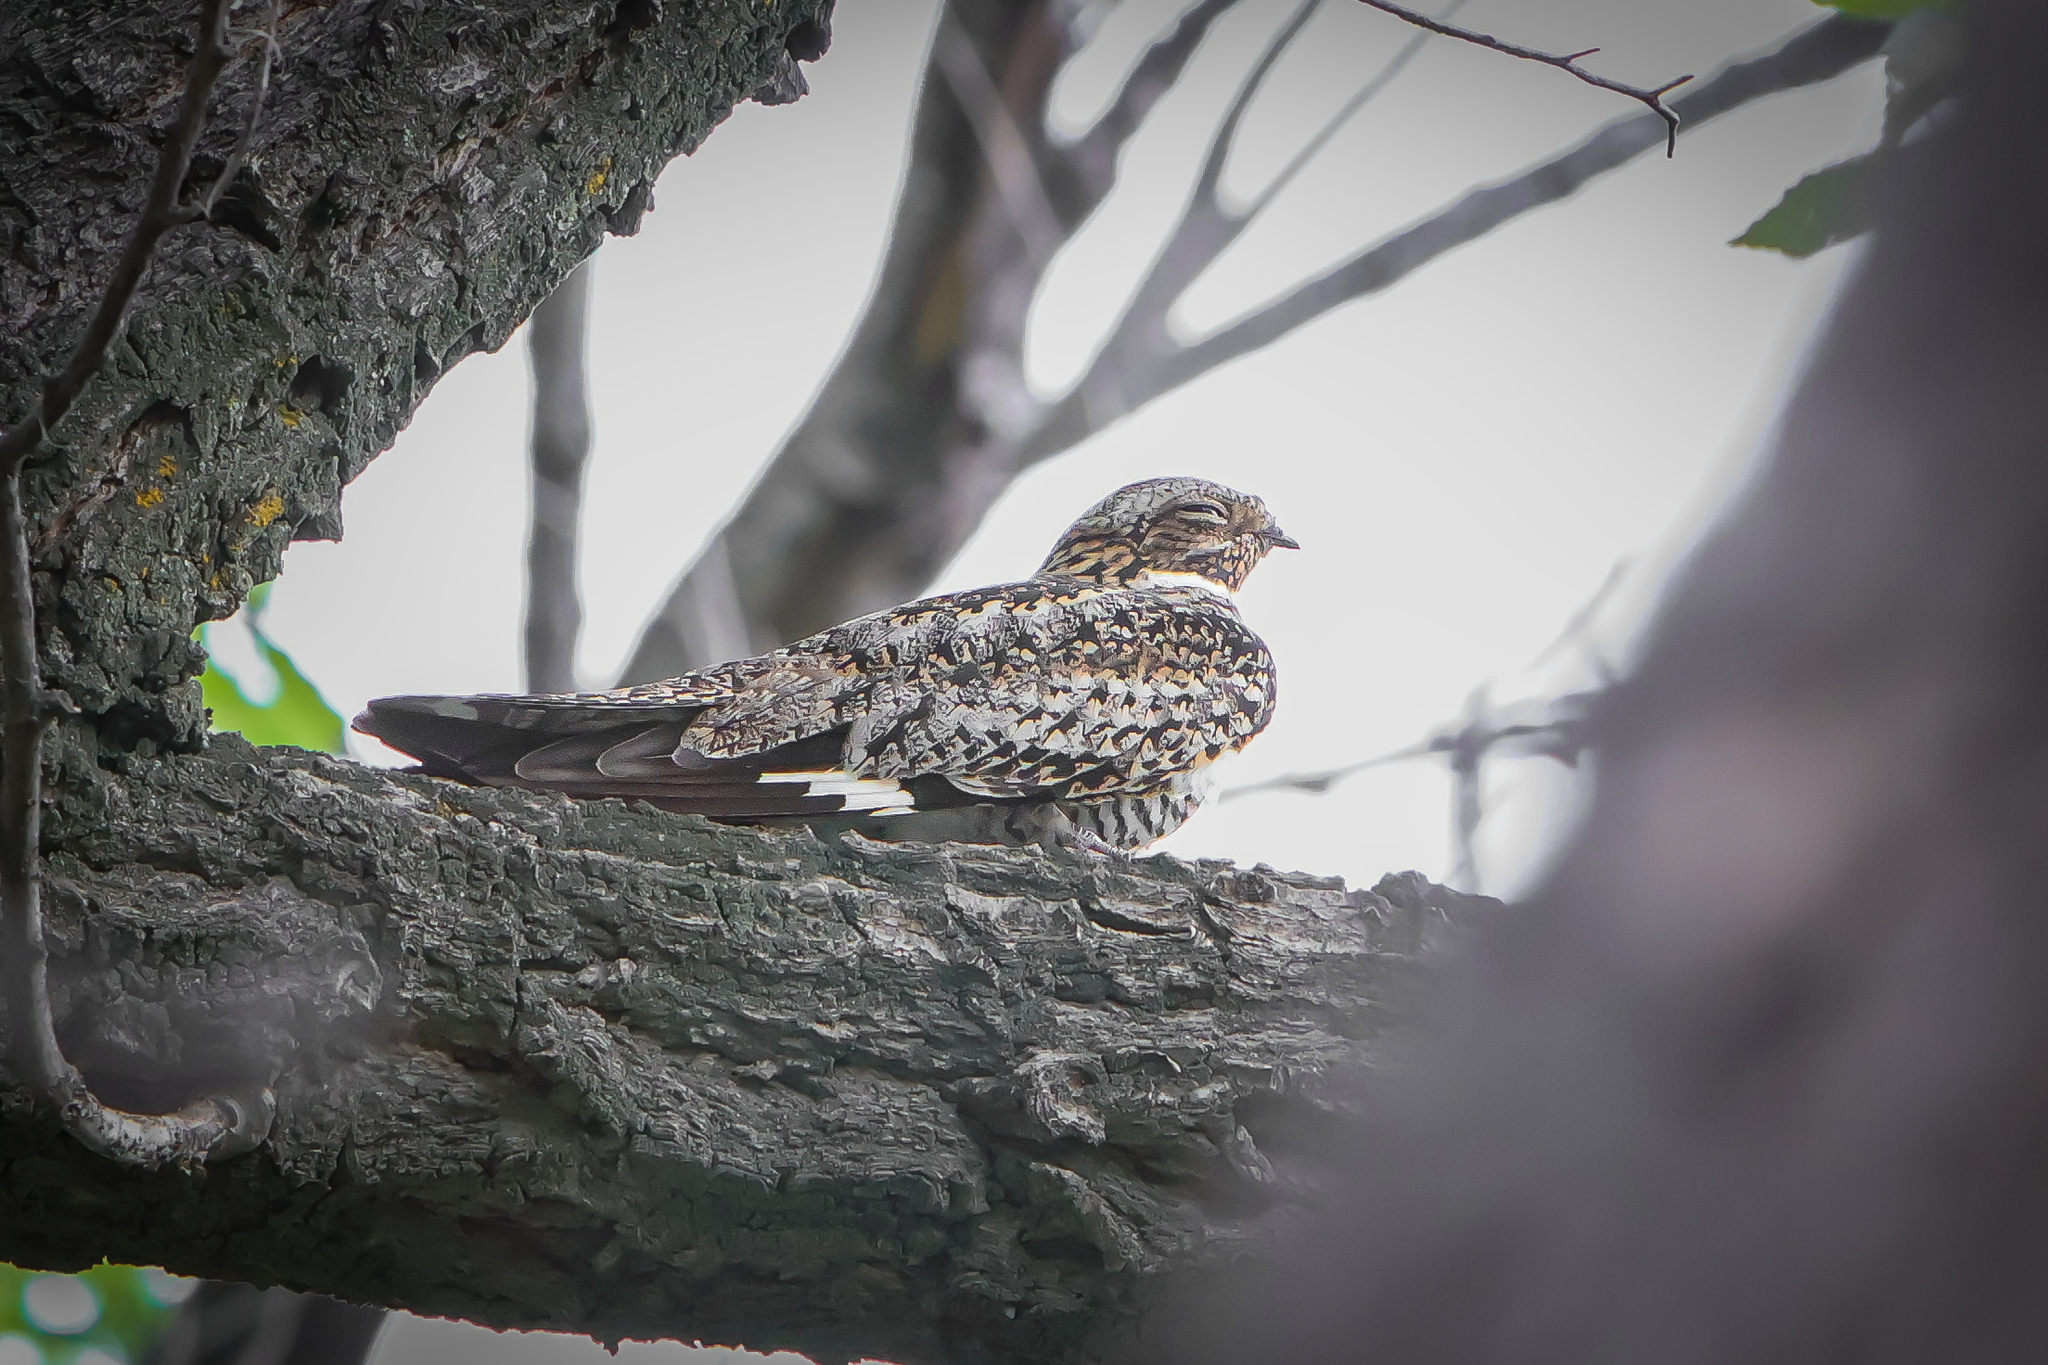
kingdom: Animalia
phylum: Chordata
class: Aves
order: Caprimulgiformes
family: Caprimulgidae
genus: Chordeiles
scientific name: Chordeiles minor
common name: Common nighthawk
